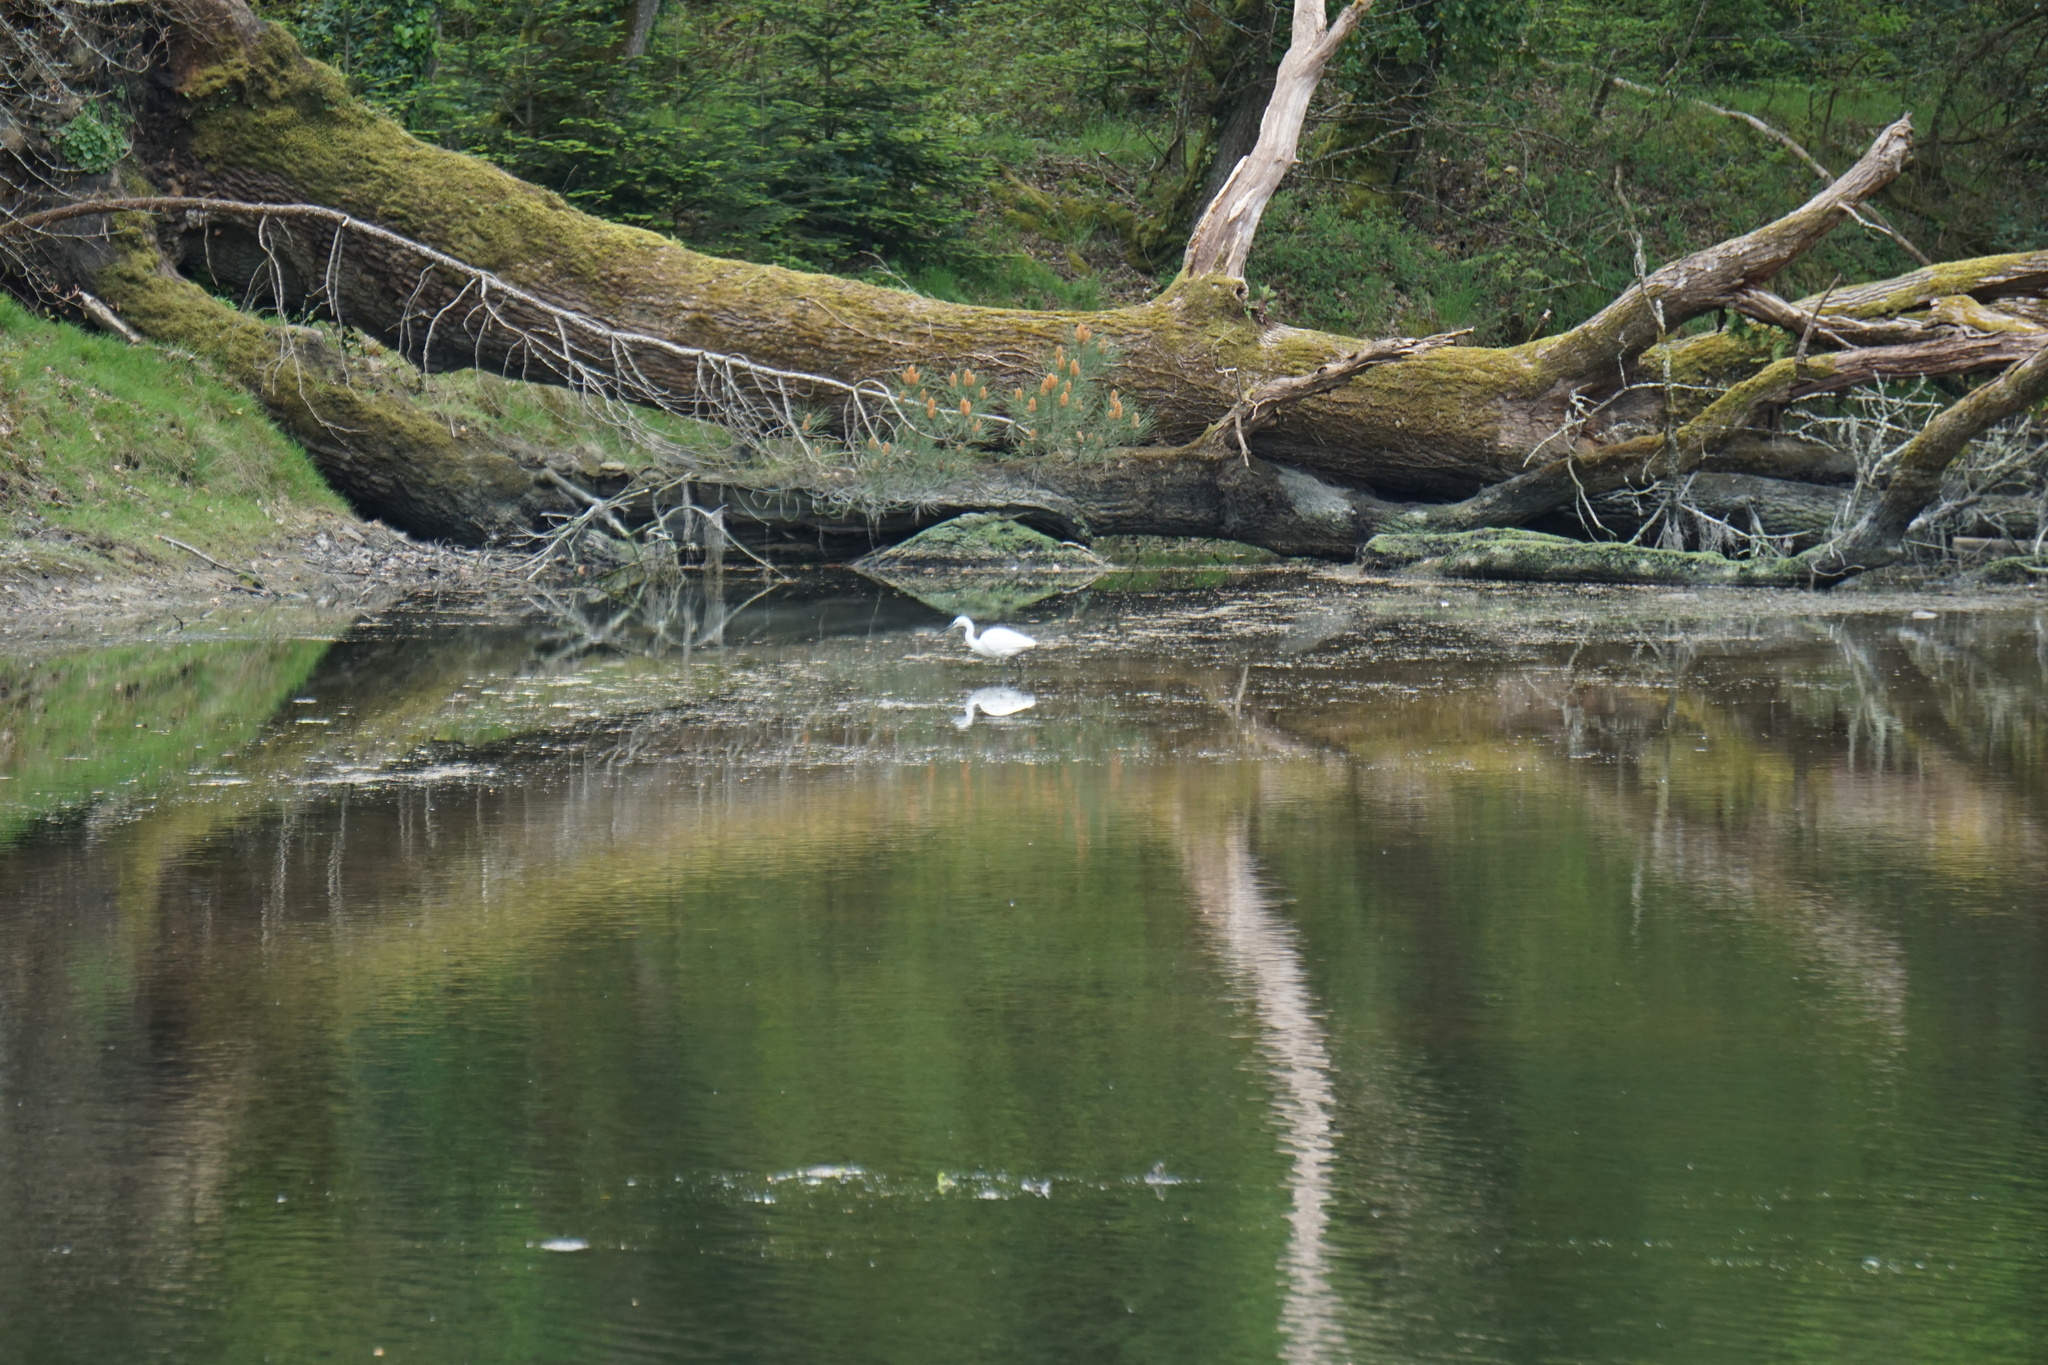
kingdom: Animalia
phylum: Chordata
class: Aves
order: Pelecaniformes
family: Ardeidae
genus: Egretta
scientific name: Egretta garzetta
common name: Little egret
